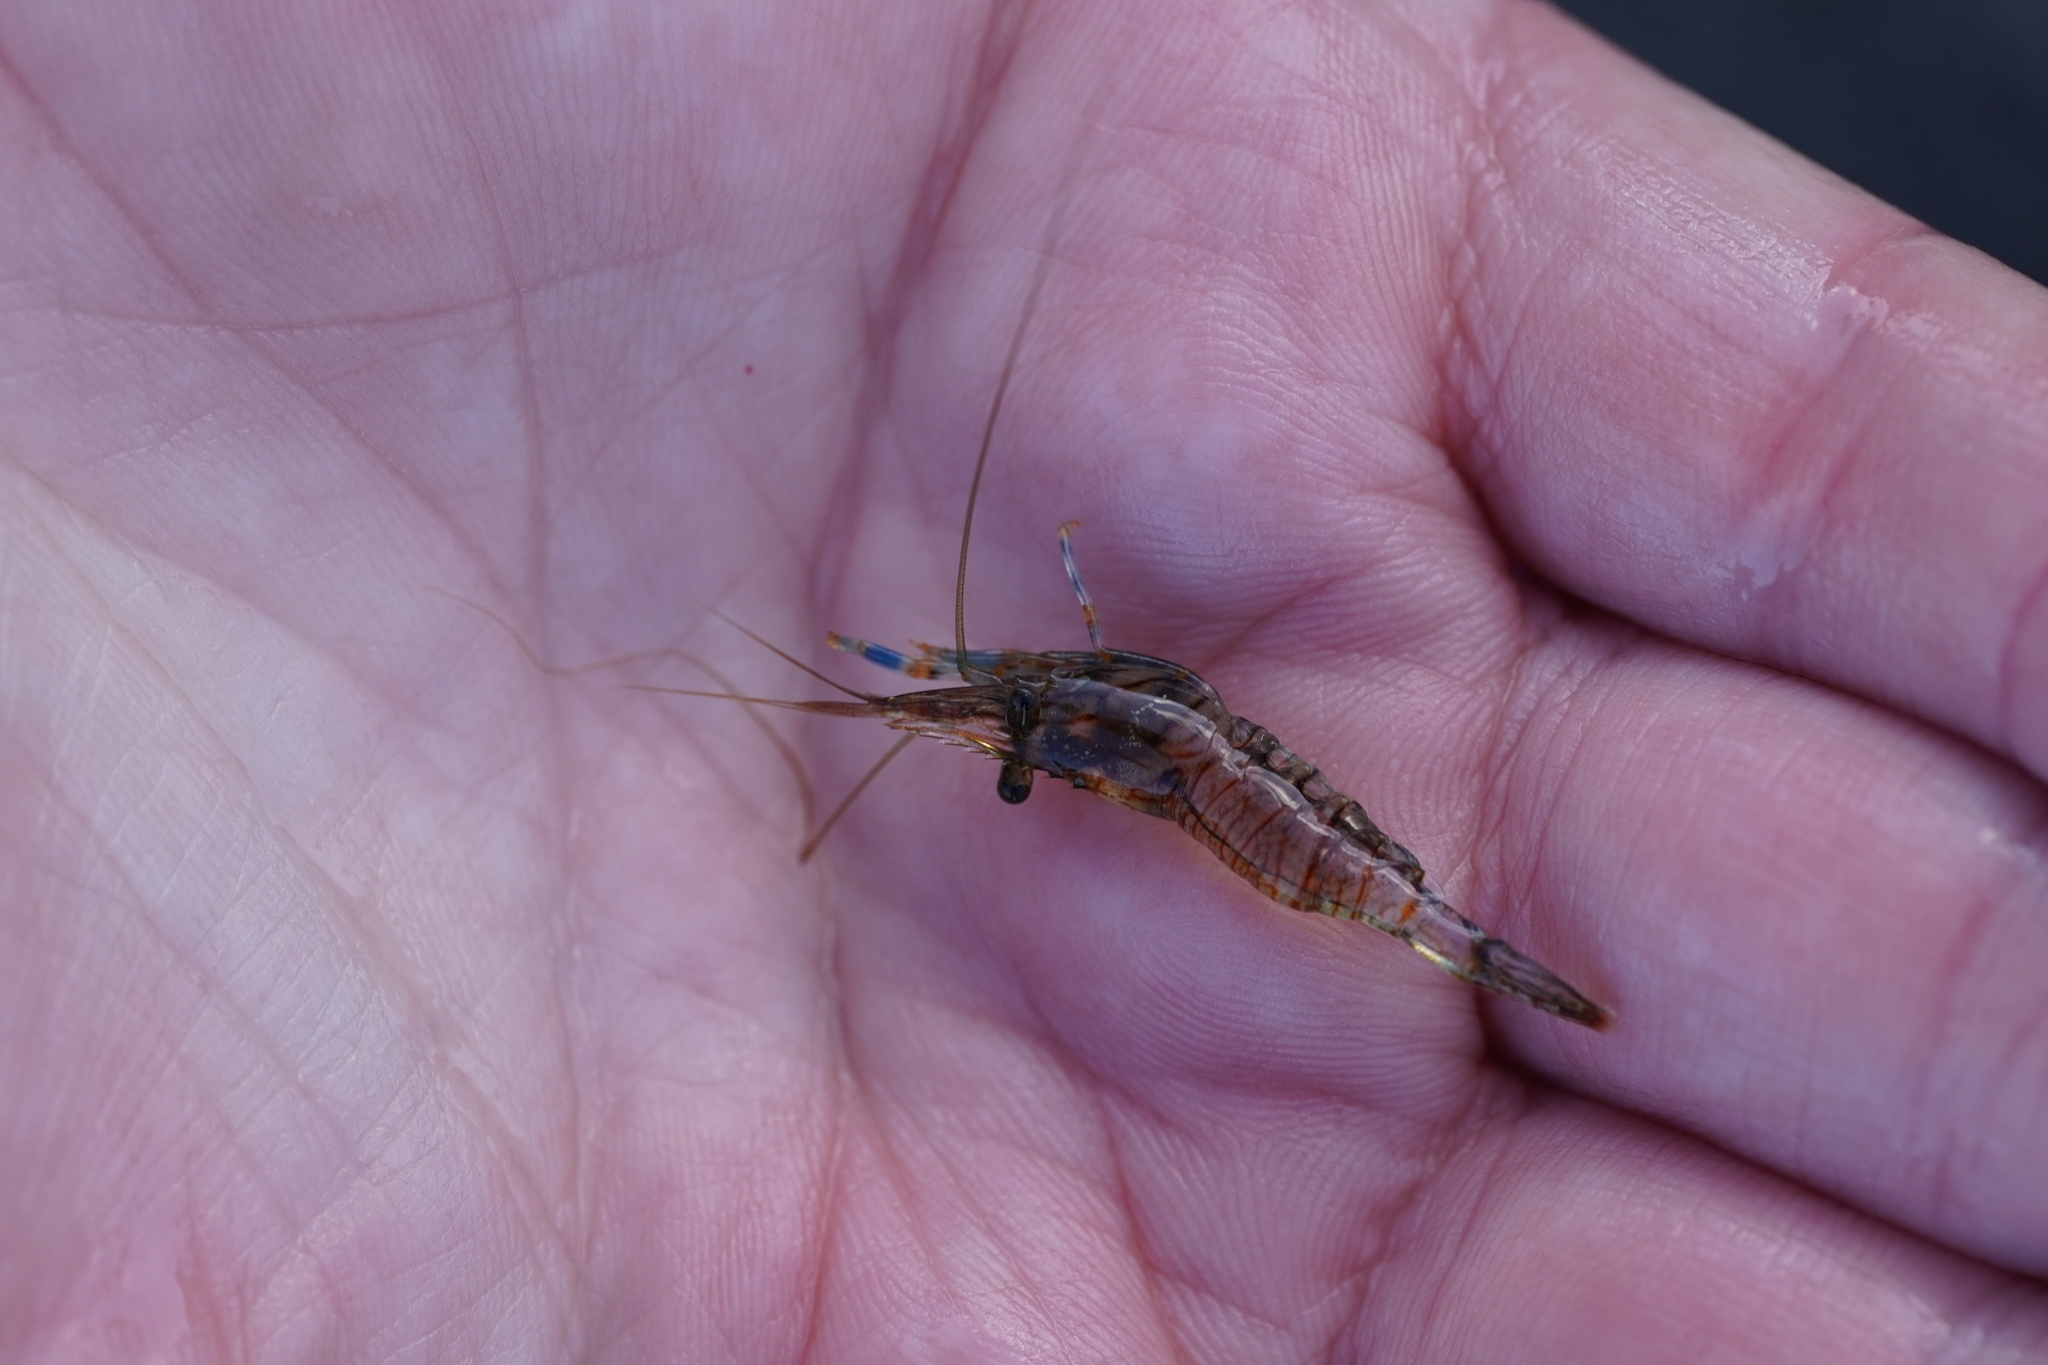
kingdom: Animalia
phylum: Arthropoda
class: Malacostraca
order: Decapoda
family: Palaemonidae
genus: Palaemon
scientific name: Palaemon elegans
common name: Grass prawm
